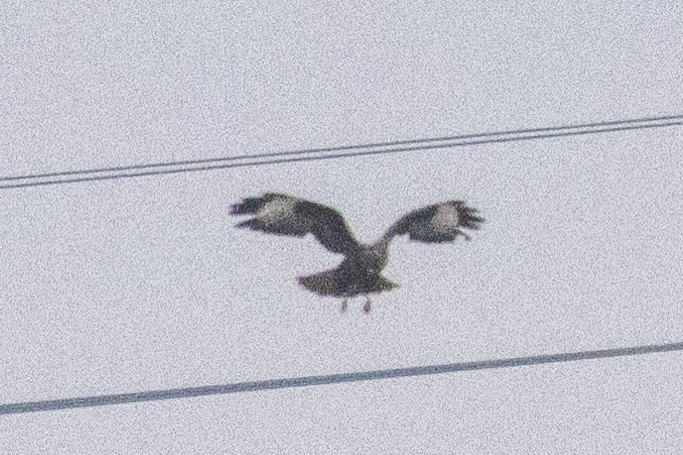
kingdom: Animalia
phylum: Chordata
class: Aves
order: Accipitriformes
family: Accipitridae
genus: Buteo
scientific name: Buteo buteo
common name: Common buzzard
